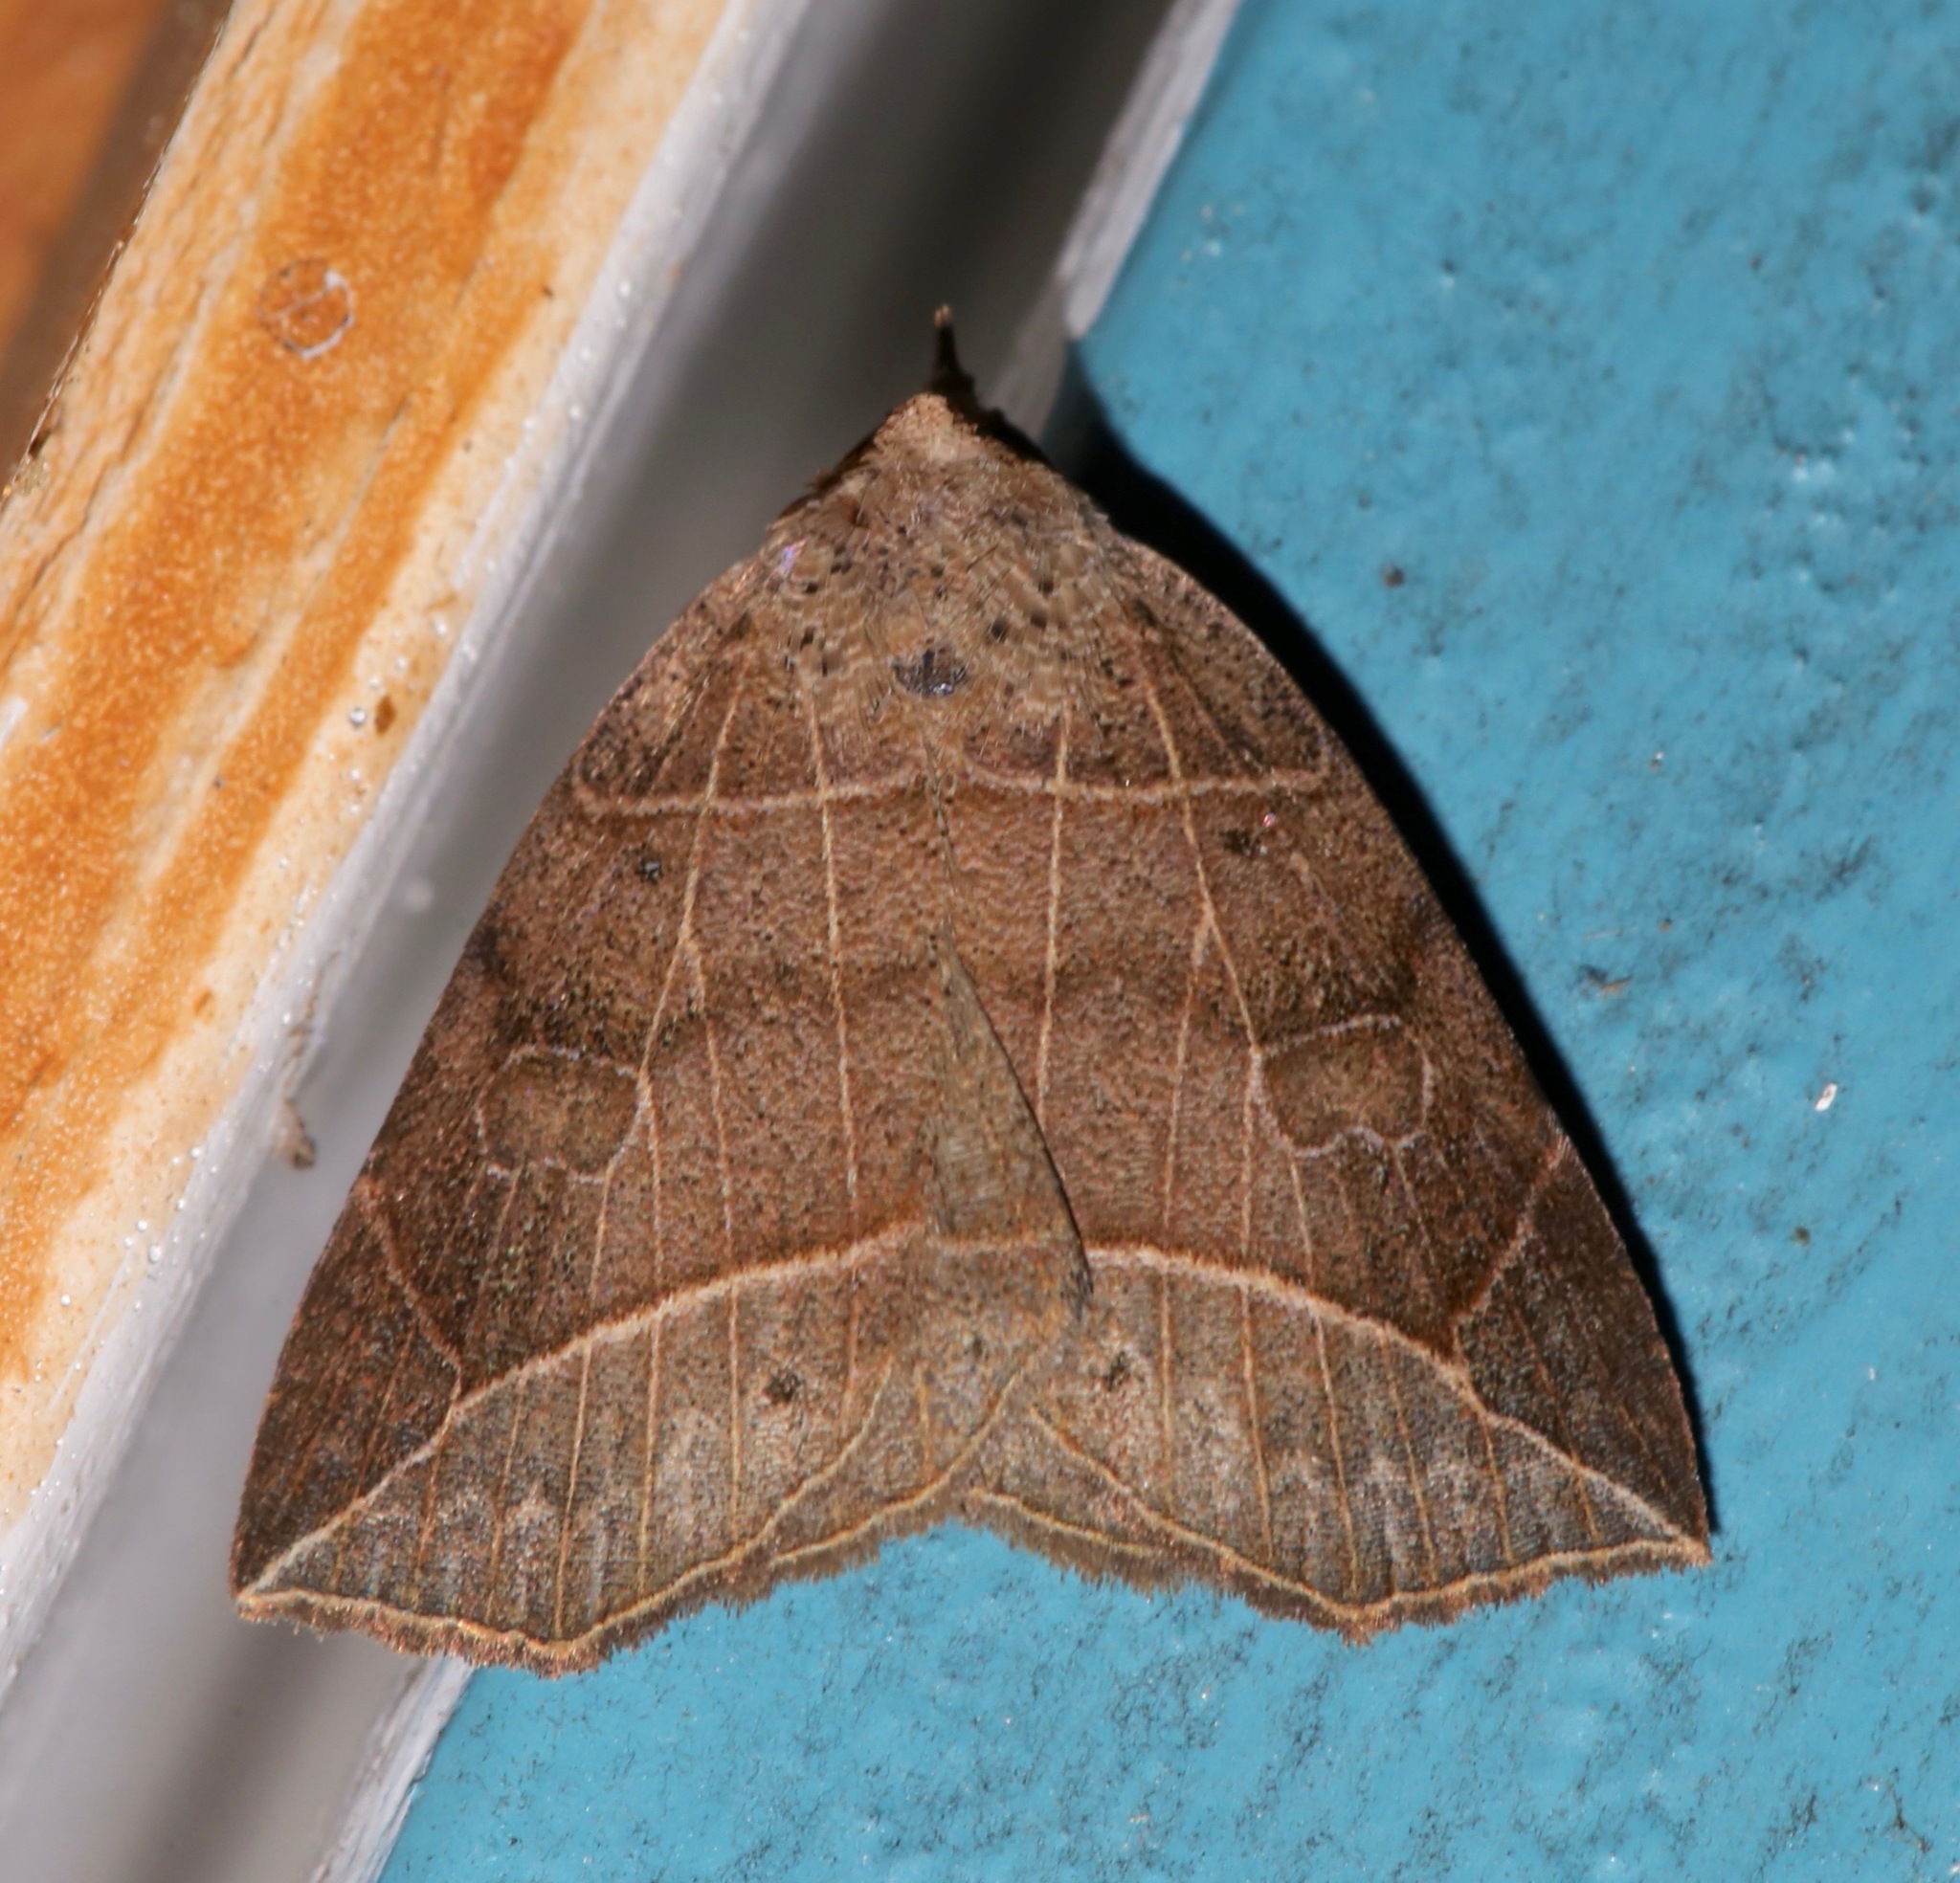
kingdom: Animalia
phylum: Arthropoda
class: Insecta
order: Lepidoptera
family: Erebidae
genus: Isogona
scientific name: Isogona tenuis
